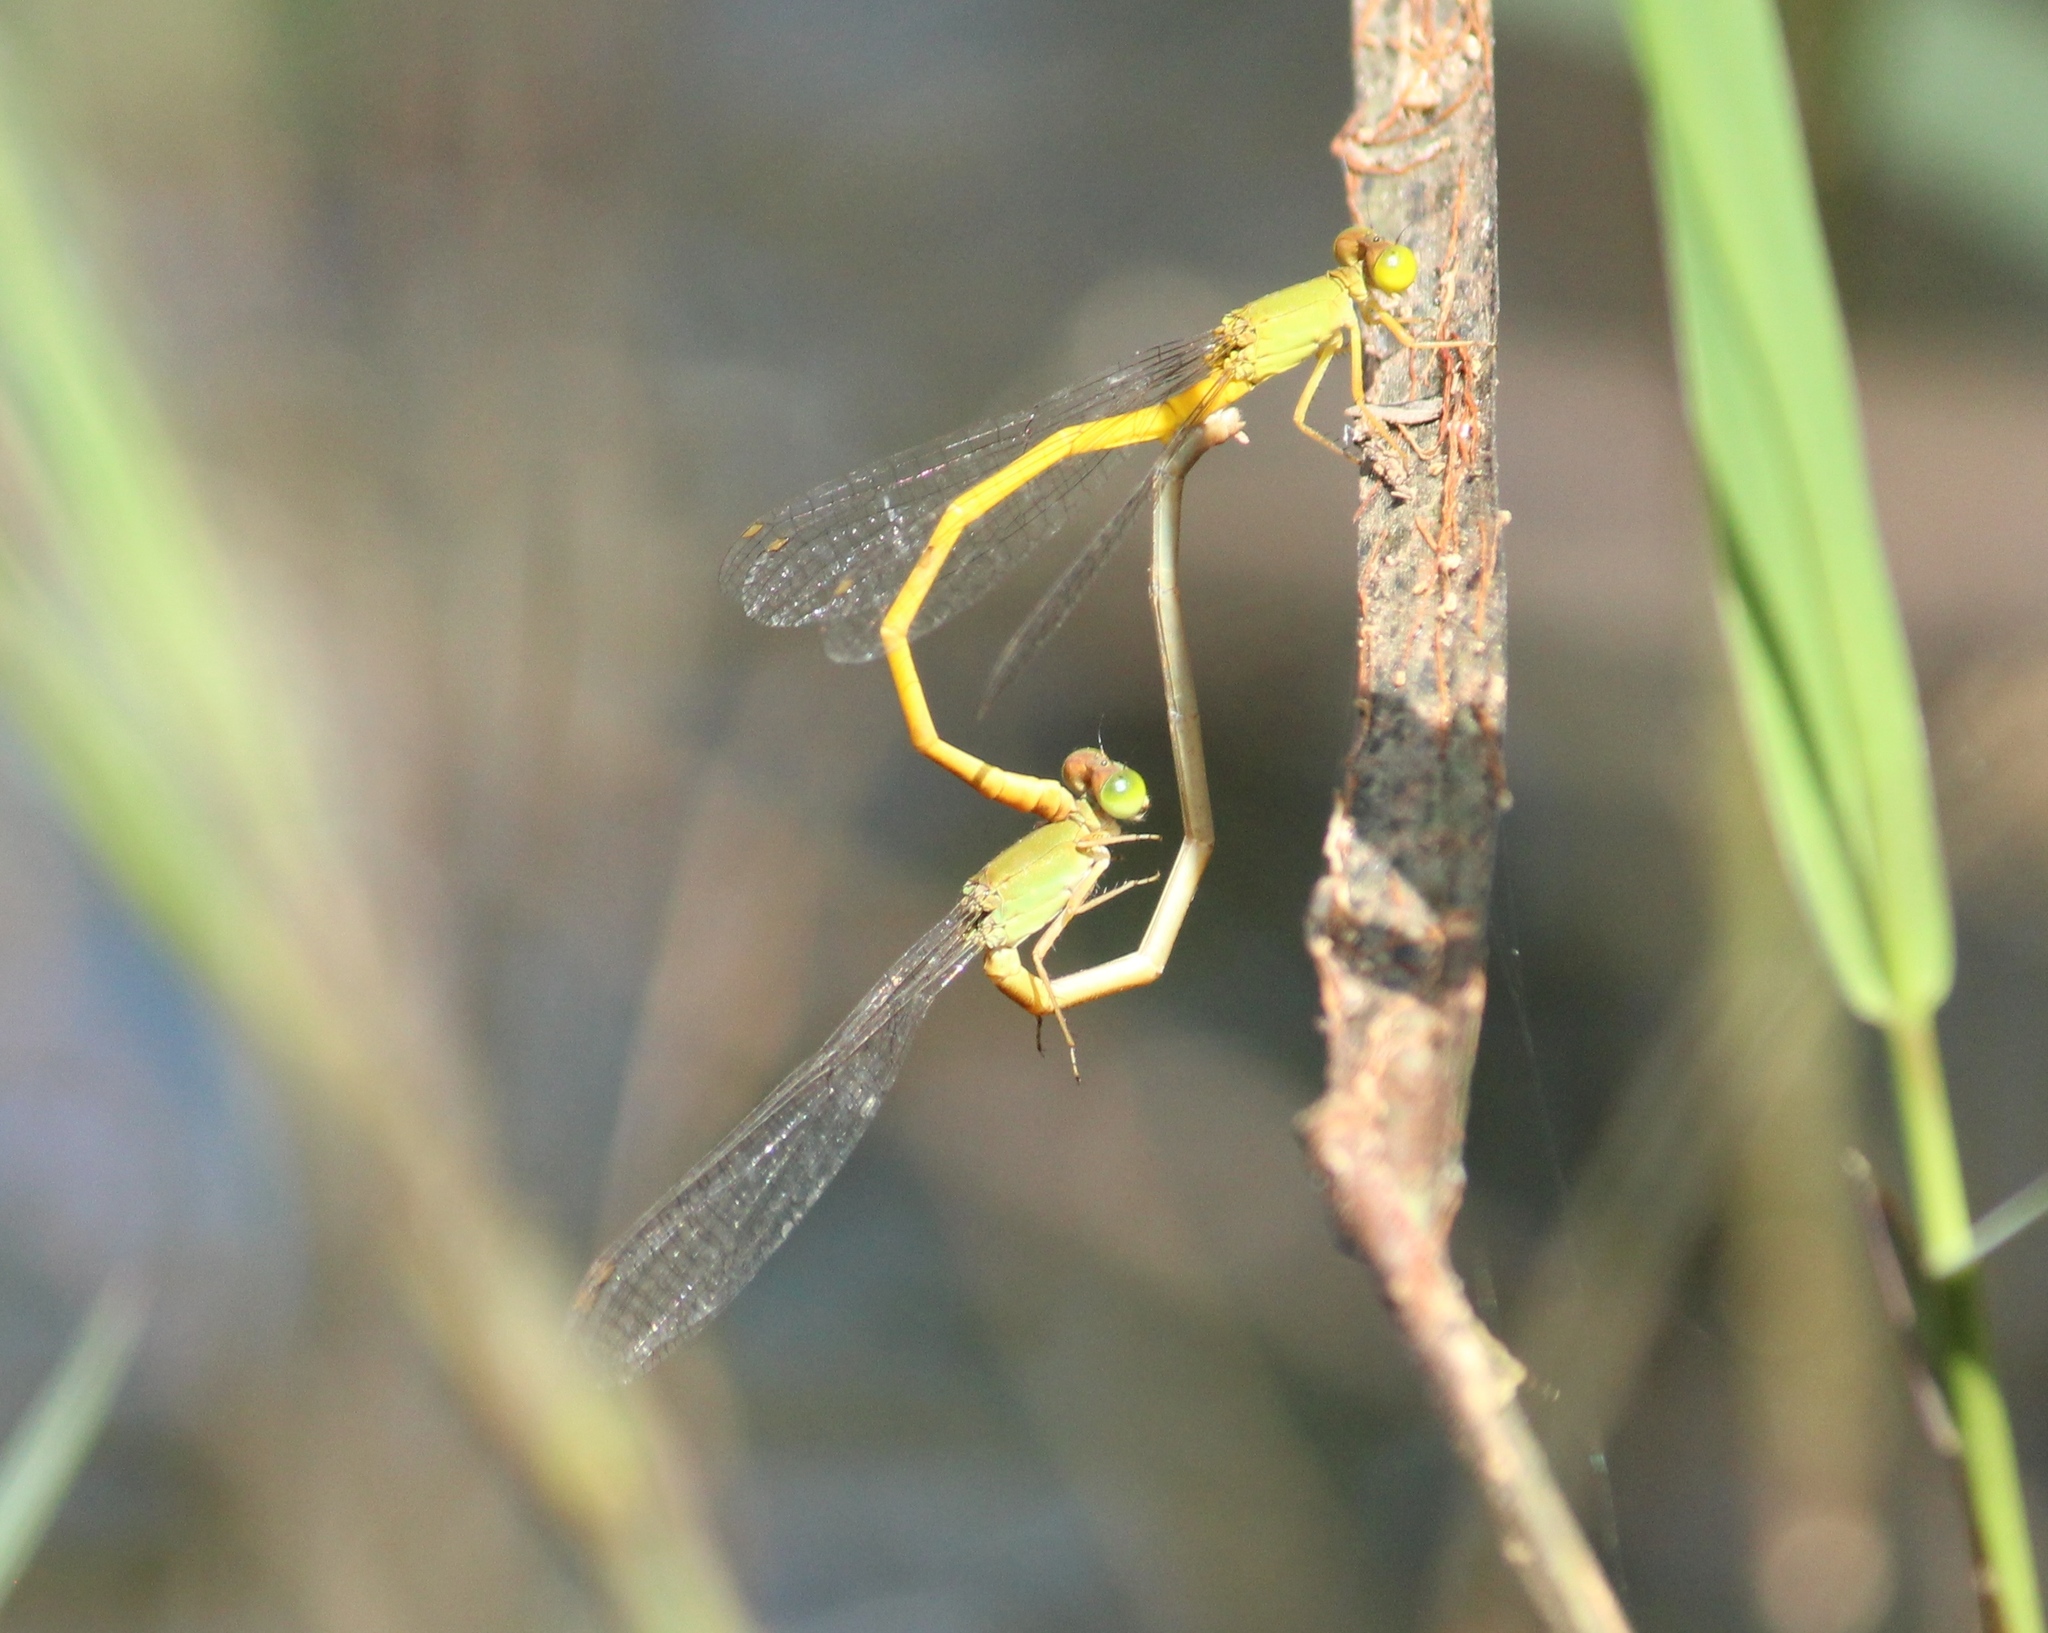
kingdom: Animalia
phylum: Arthropoda
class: Insecta
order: Odonata
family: Coenagrionidae
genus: Ceriagrion
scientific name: Ceriagrion coromandelianum
